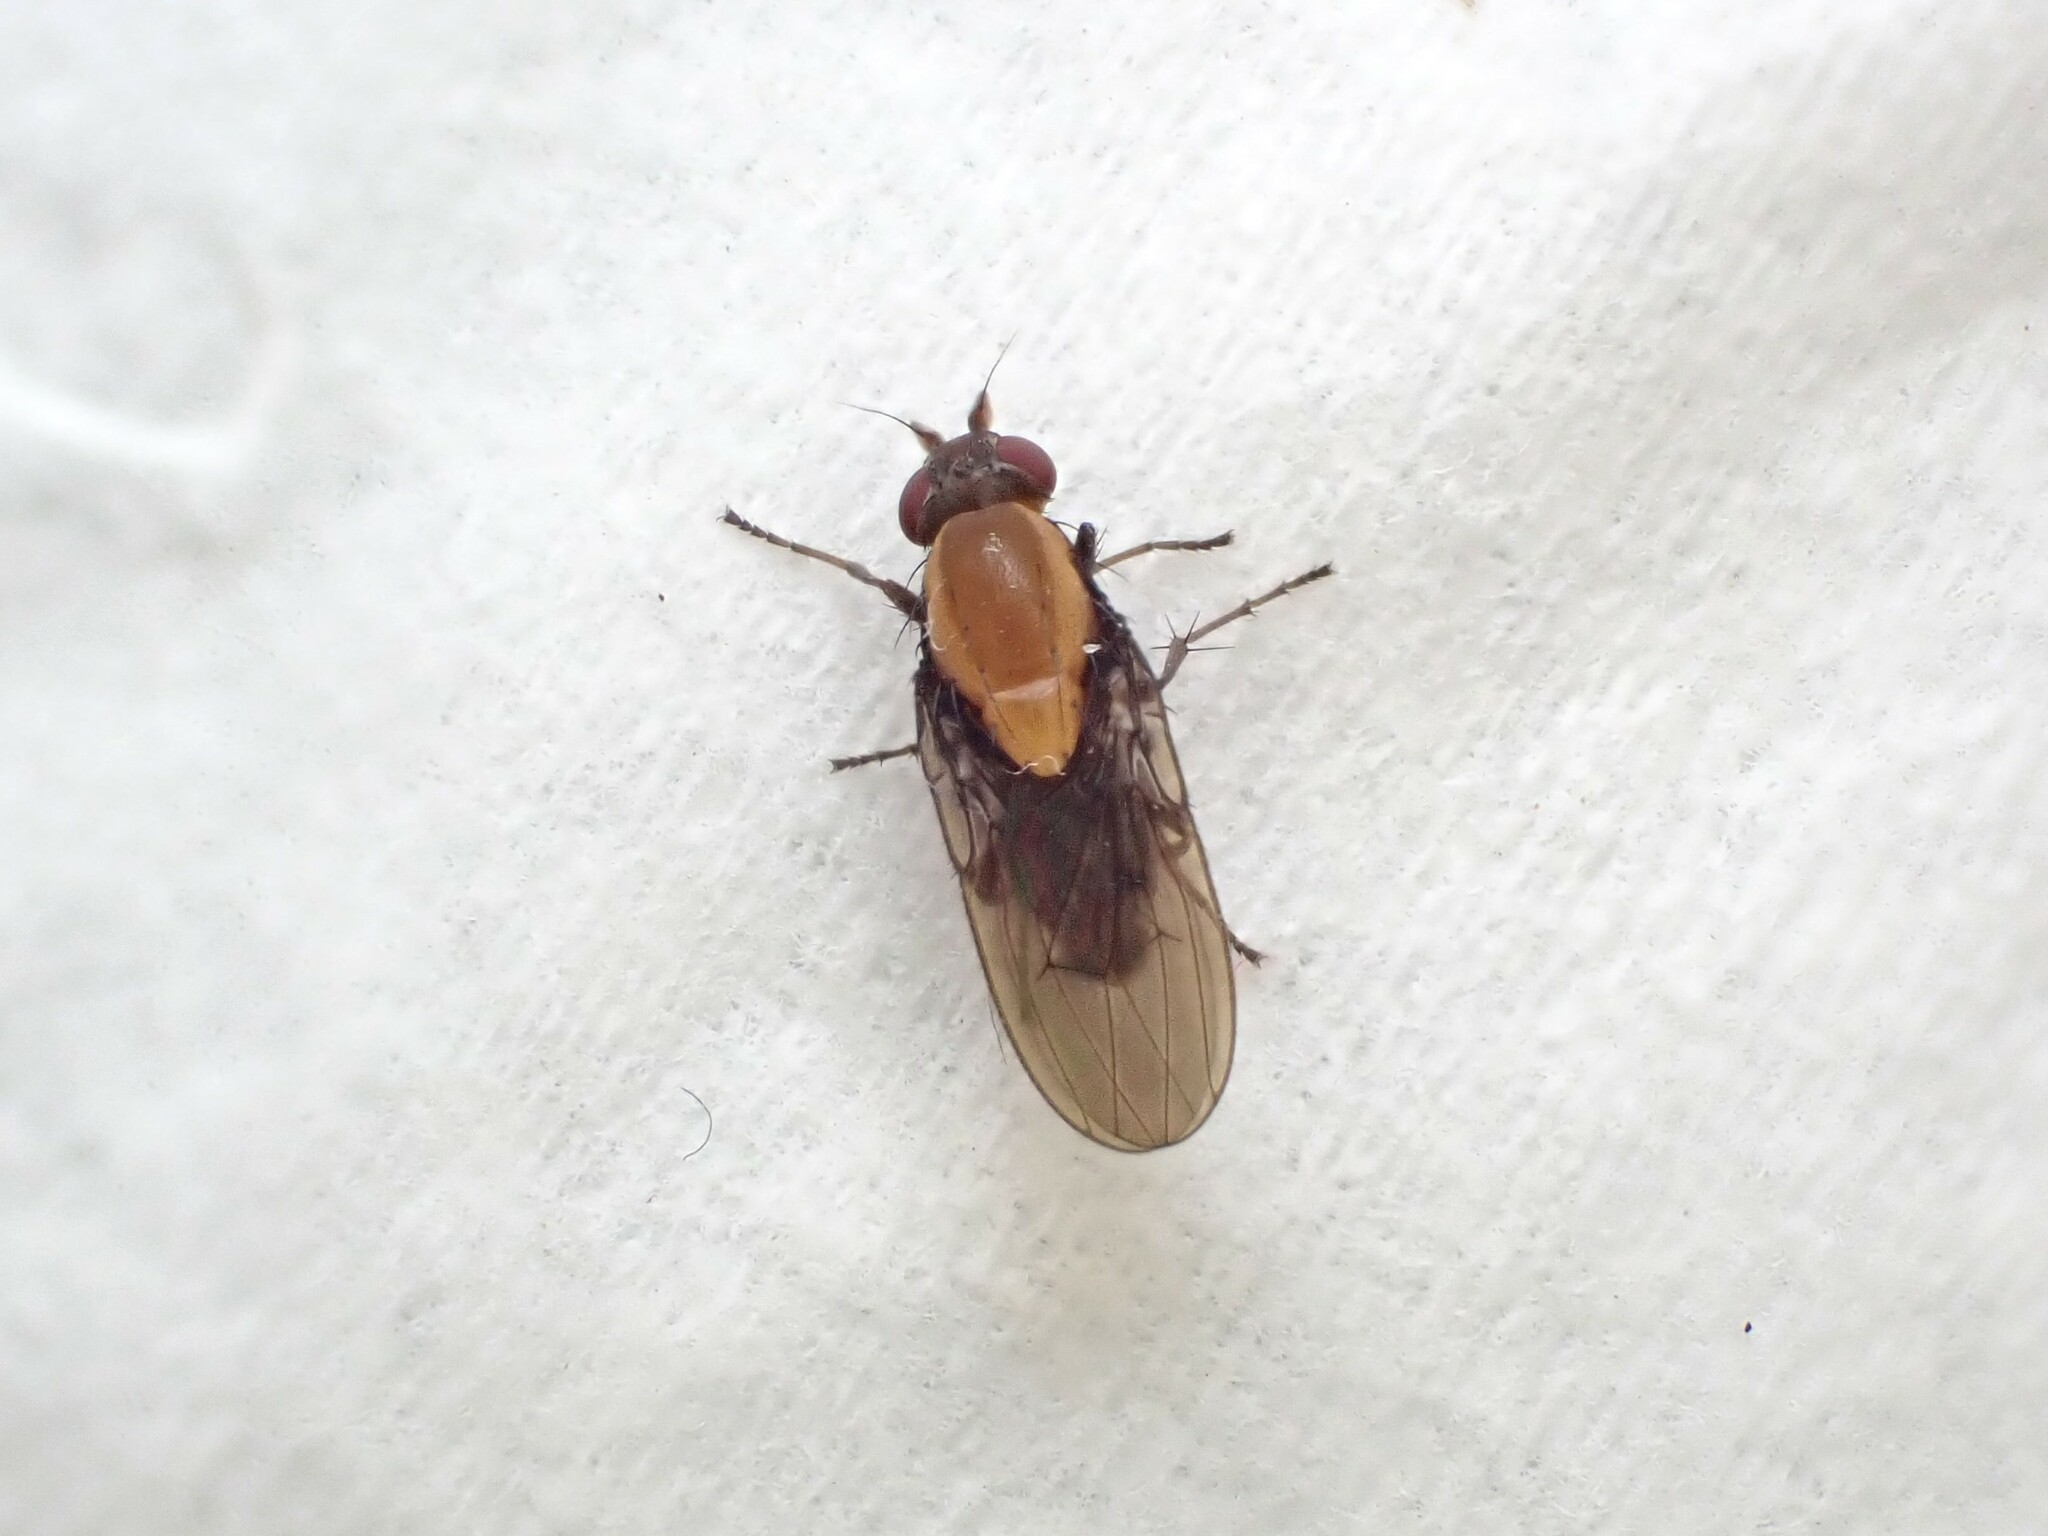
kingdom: Animalia
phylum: Arthropoda
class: Insecta
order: Diptera
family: Heleomyzidae
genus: Allophylopsis
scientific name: Allophylopsis scutellata
